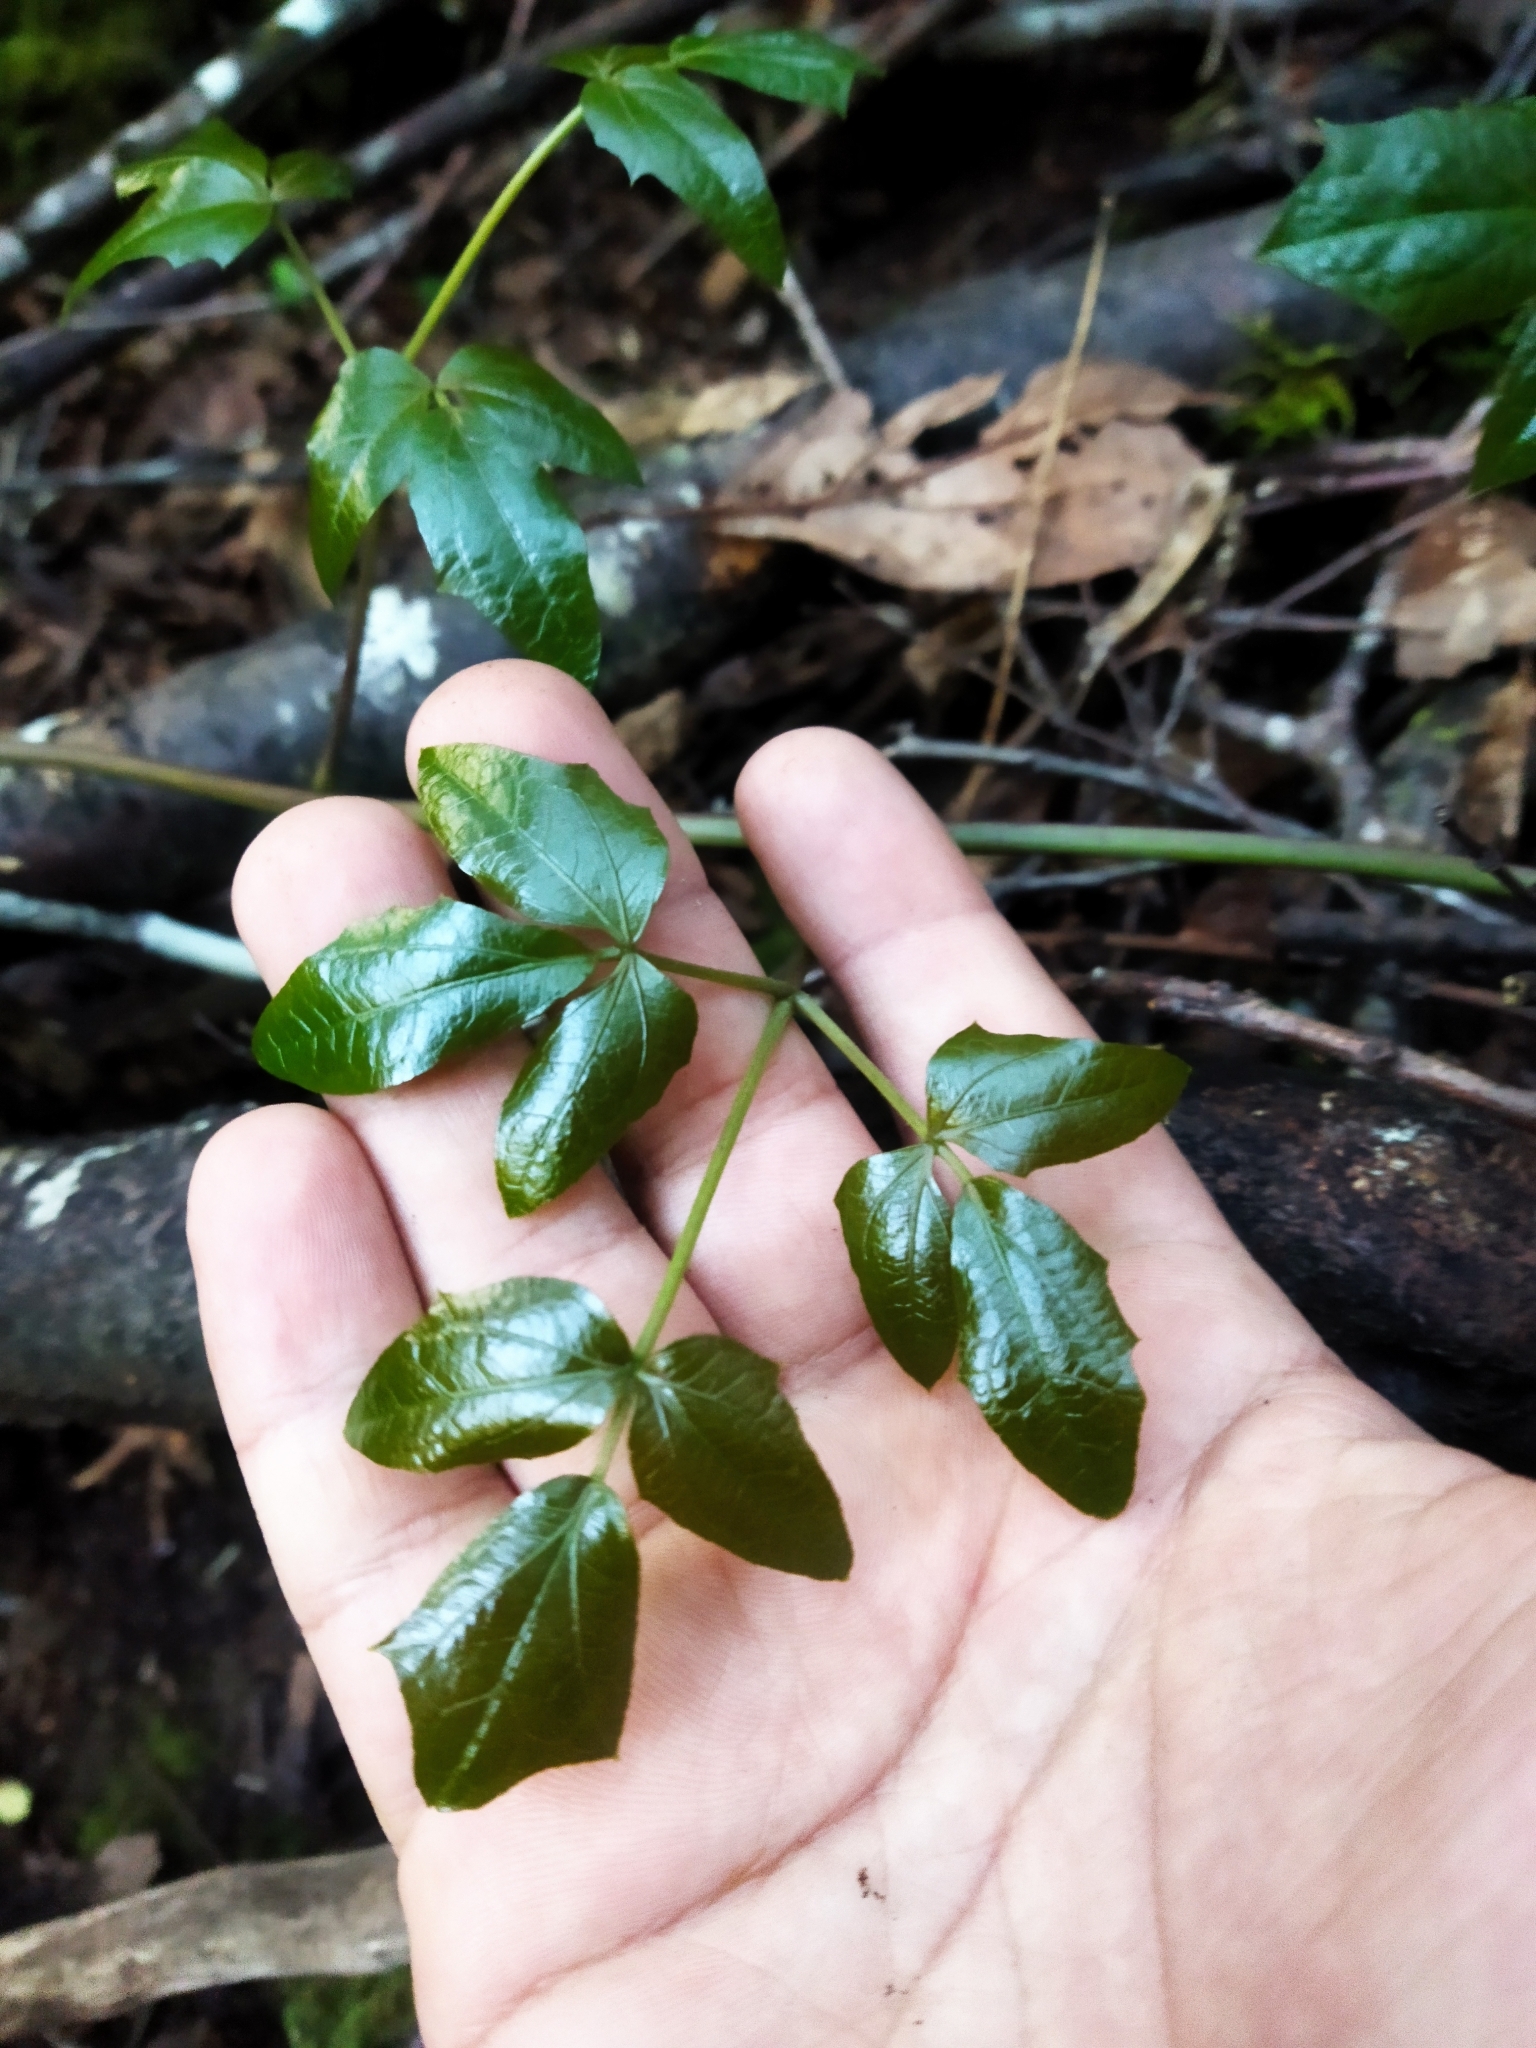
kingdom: Plantae
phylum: Tracheophyta
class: Magnoliopsida
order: Ranunculales
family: Lardizabalaceae
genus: Lardizabala
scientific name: Lardizabala funaria
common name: Zabala
